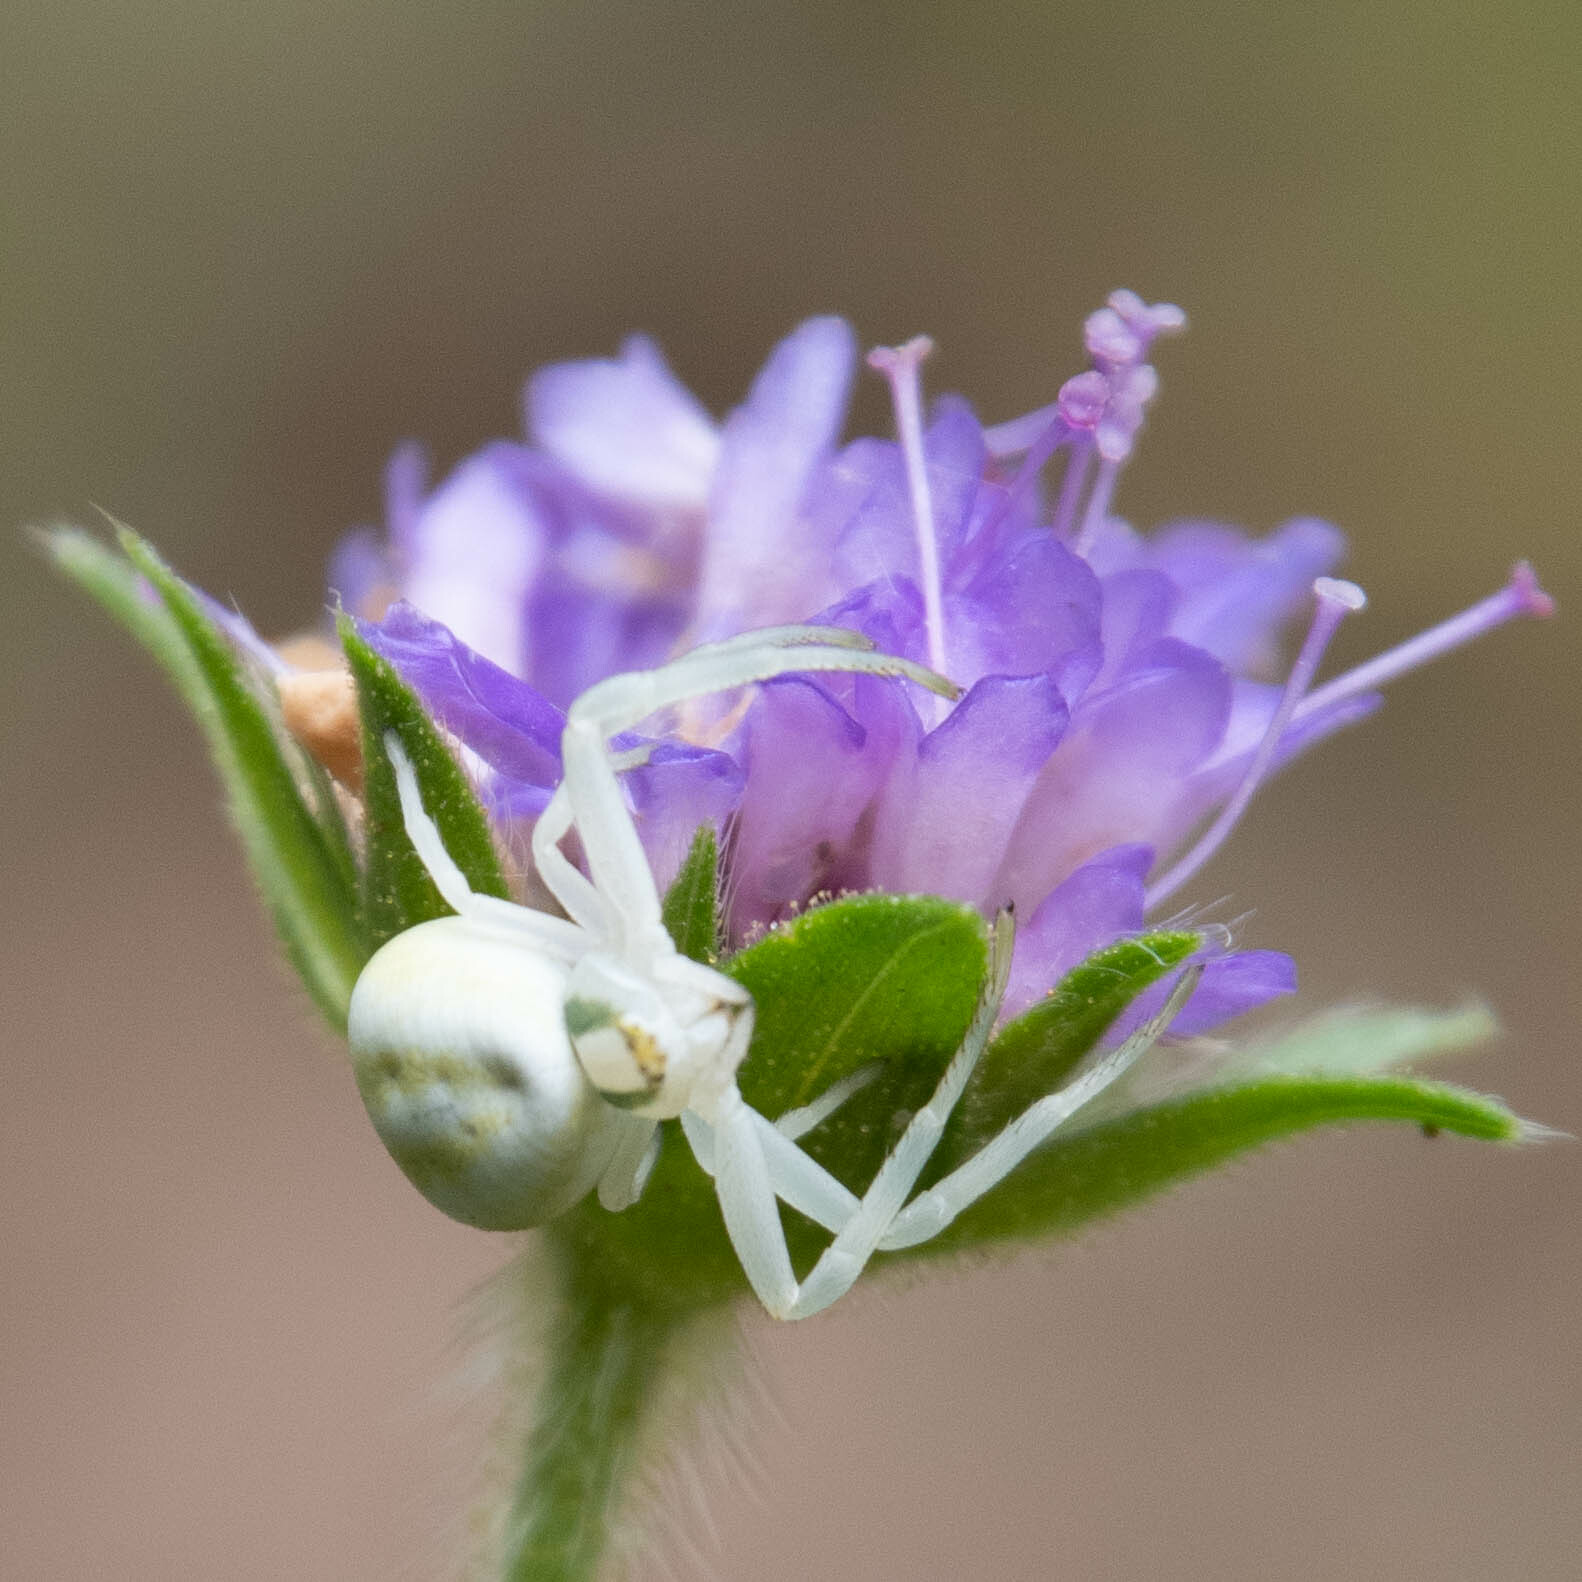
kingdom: Animalia
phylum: Arthropoda
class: Arachnida
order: Araneae
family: Thomisidae
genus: Misumena
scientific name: Misumena vatia
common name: Goldenrod crab spider
